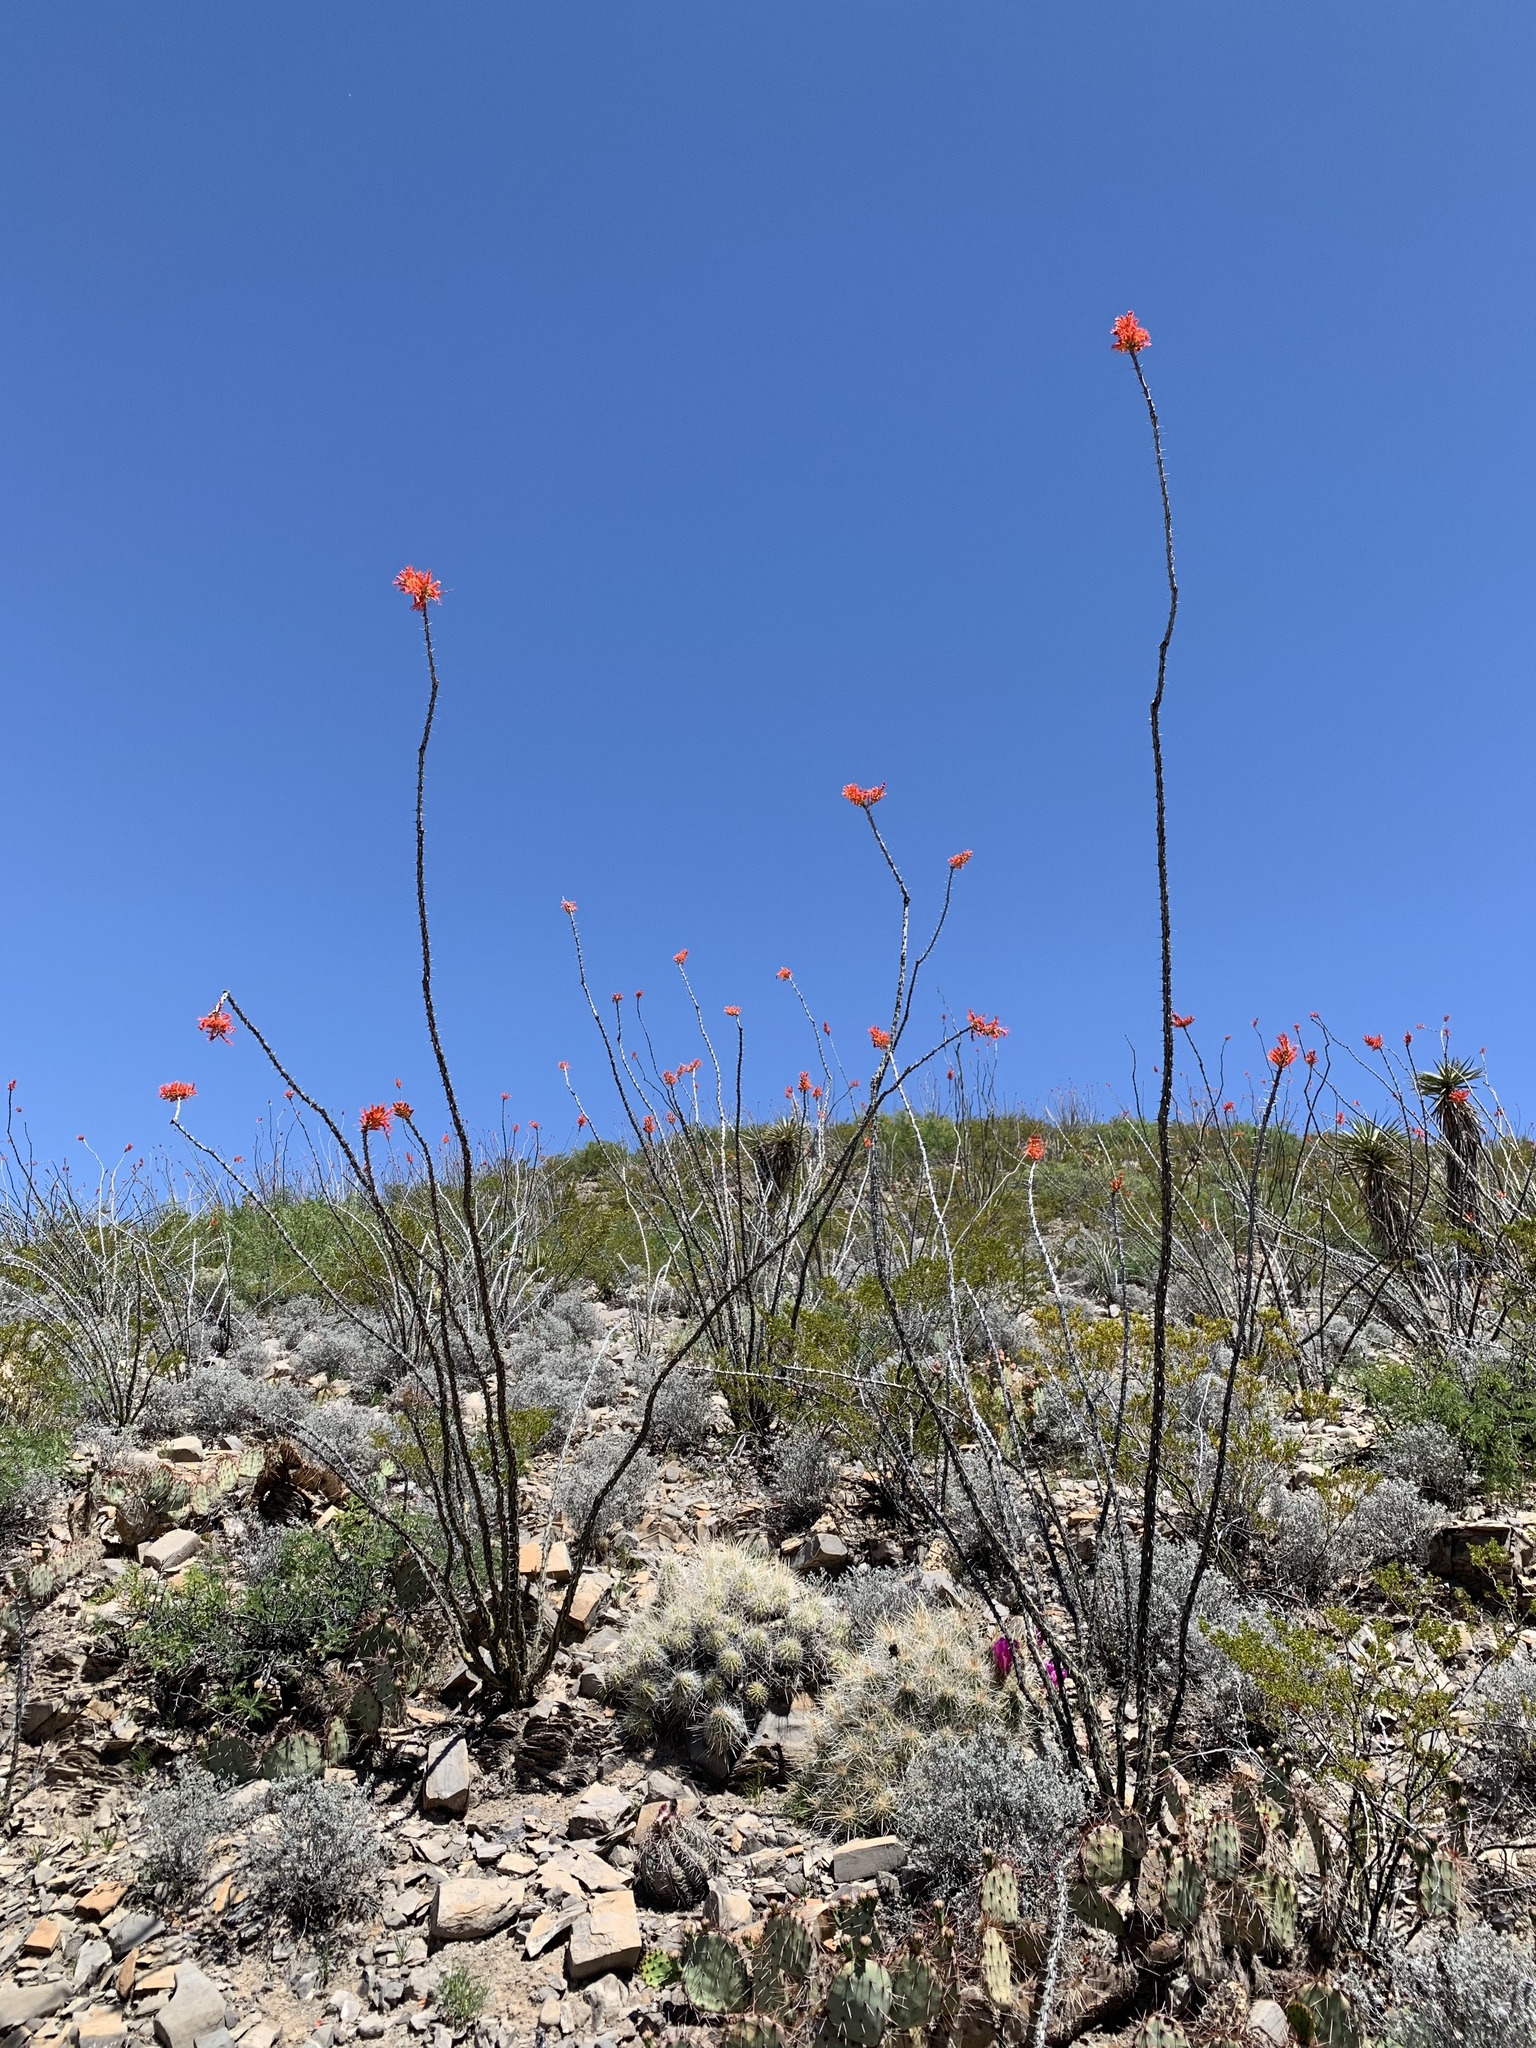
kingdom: Plantae
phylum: Tracheophyta
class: Magnoliopsida
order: Ericales
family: Fouquieriaceae
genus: Fouquieria
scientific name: Fouquieria splendens
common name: Vine-cactus
